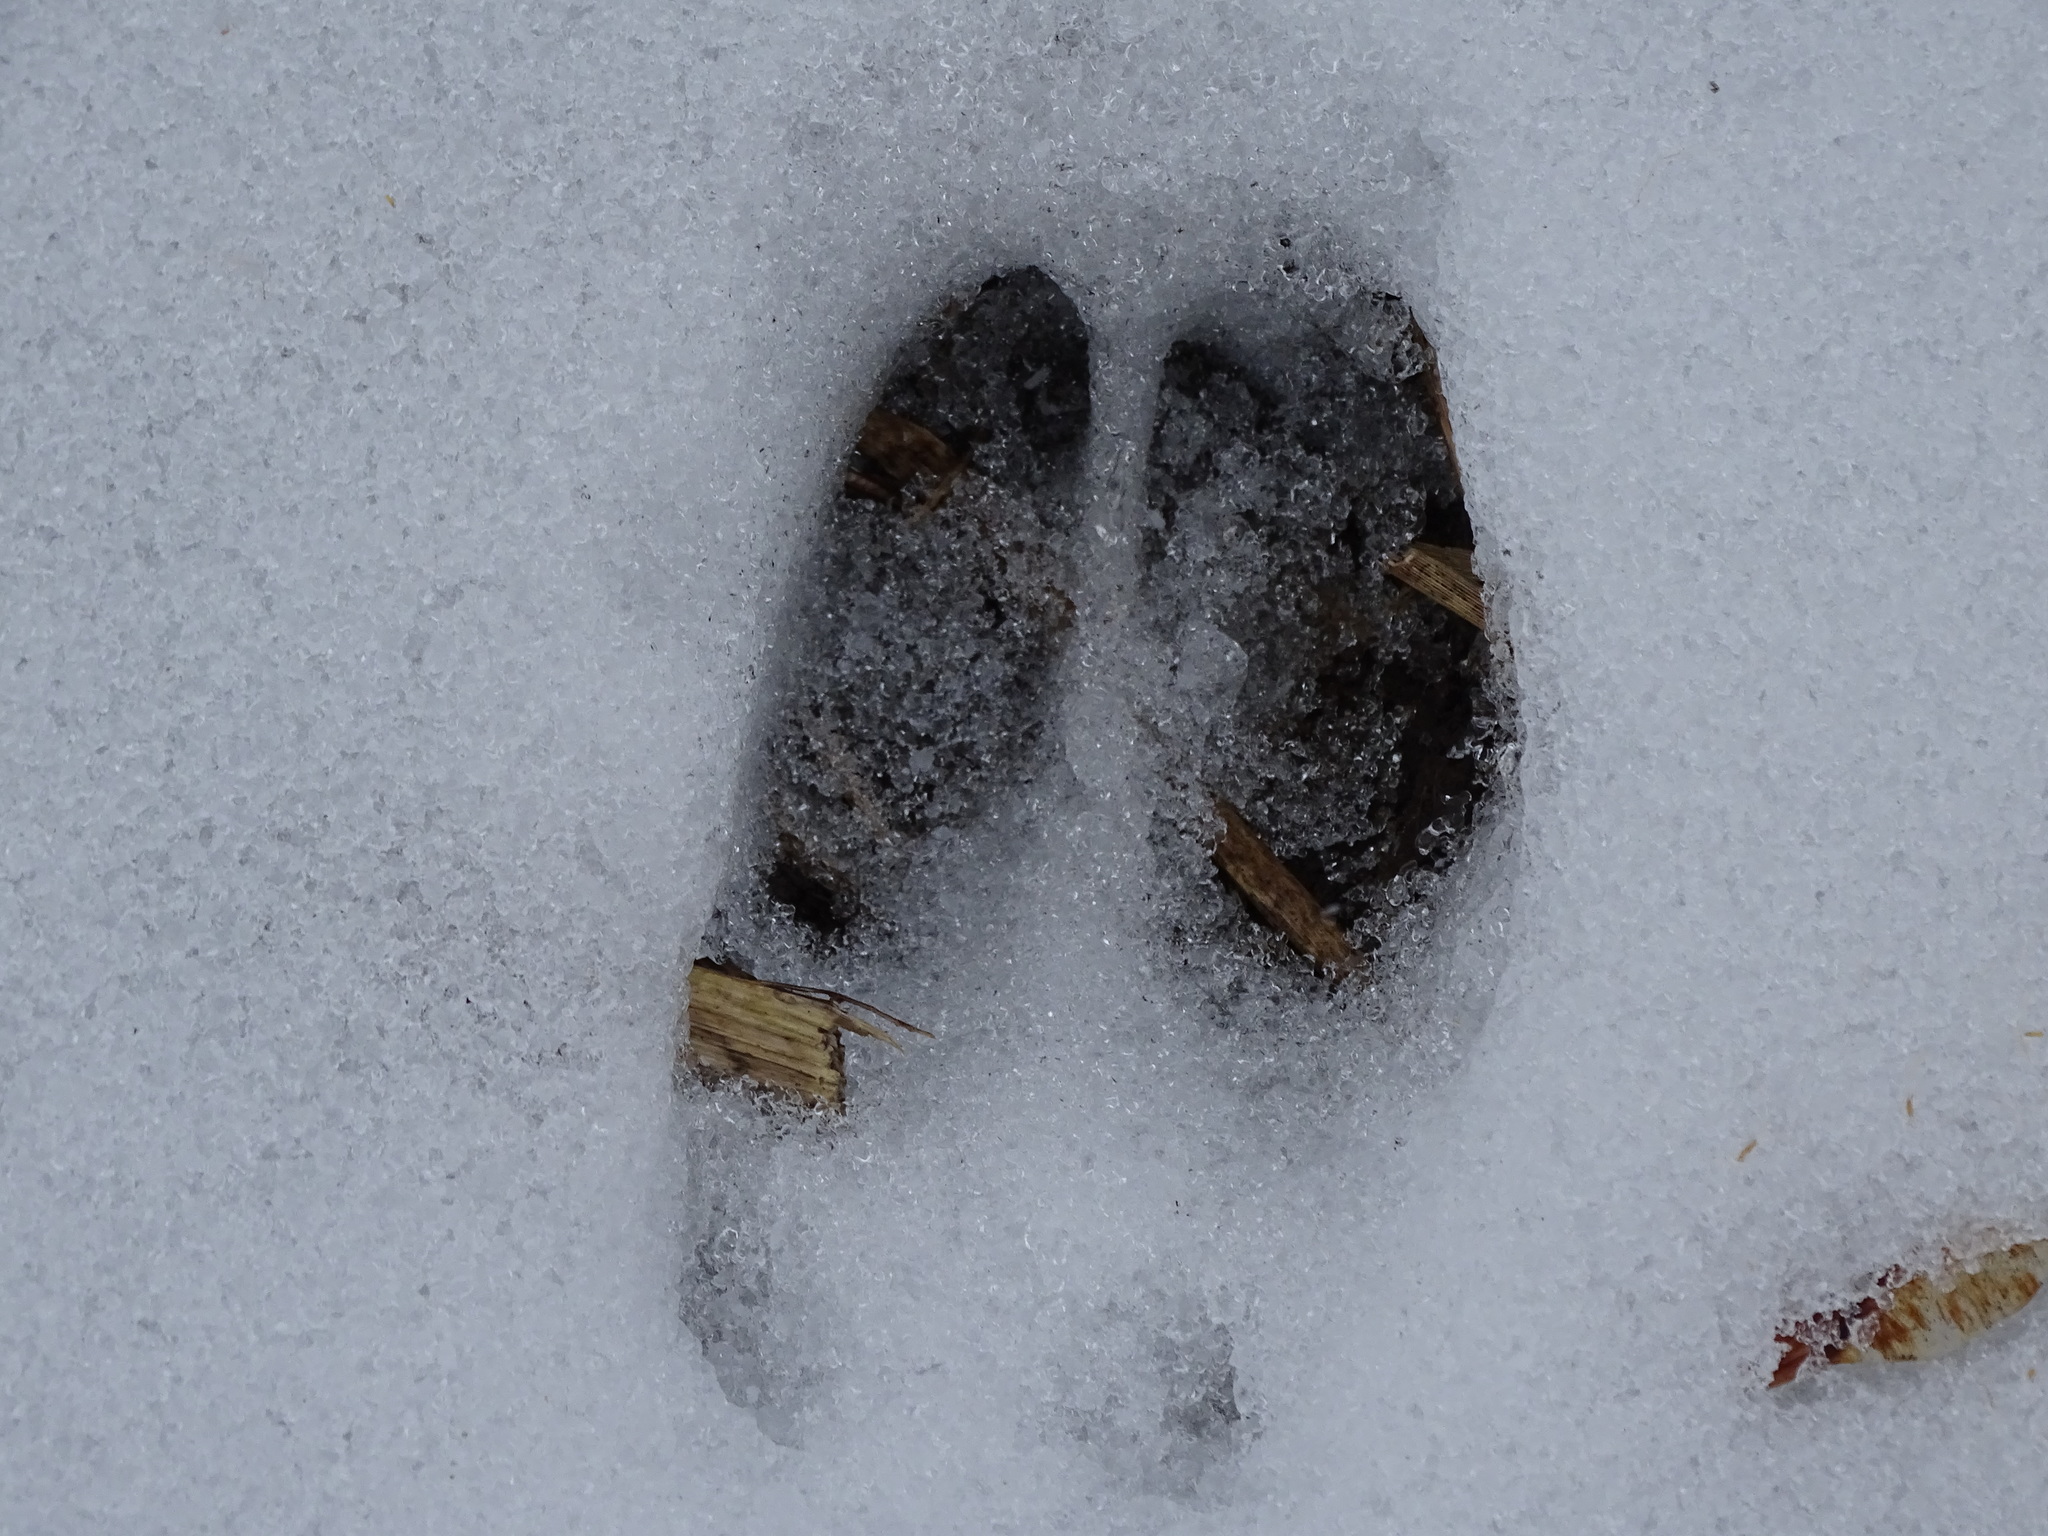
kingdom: Animalia
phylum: Chordata
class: Mammalia
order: Artiodactyla
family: Cervidae
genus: Odocoileus
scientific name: Odocoileus virginianus
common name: White-tailed deer
